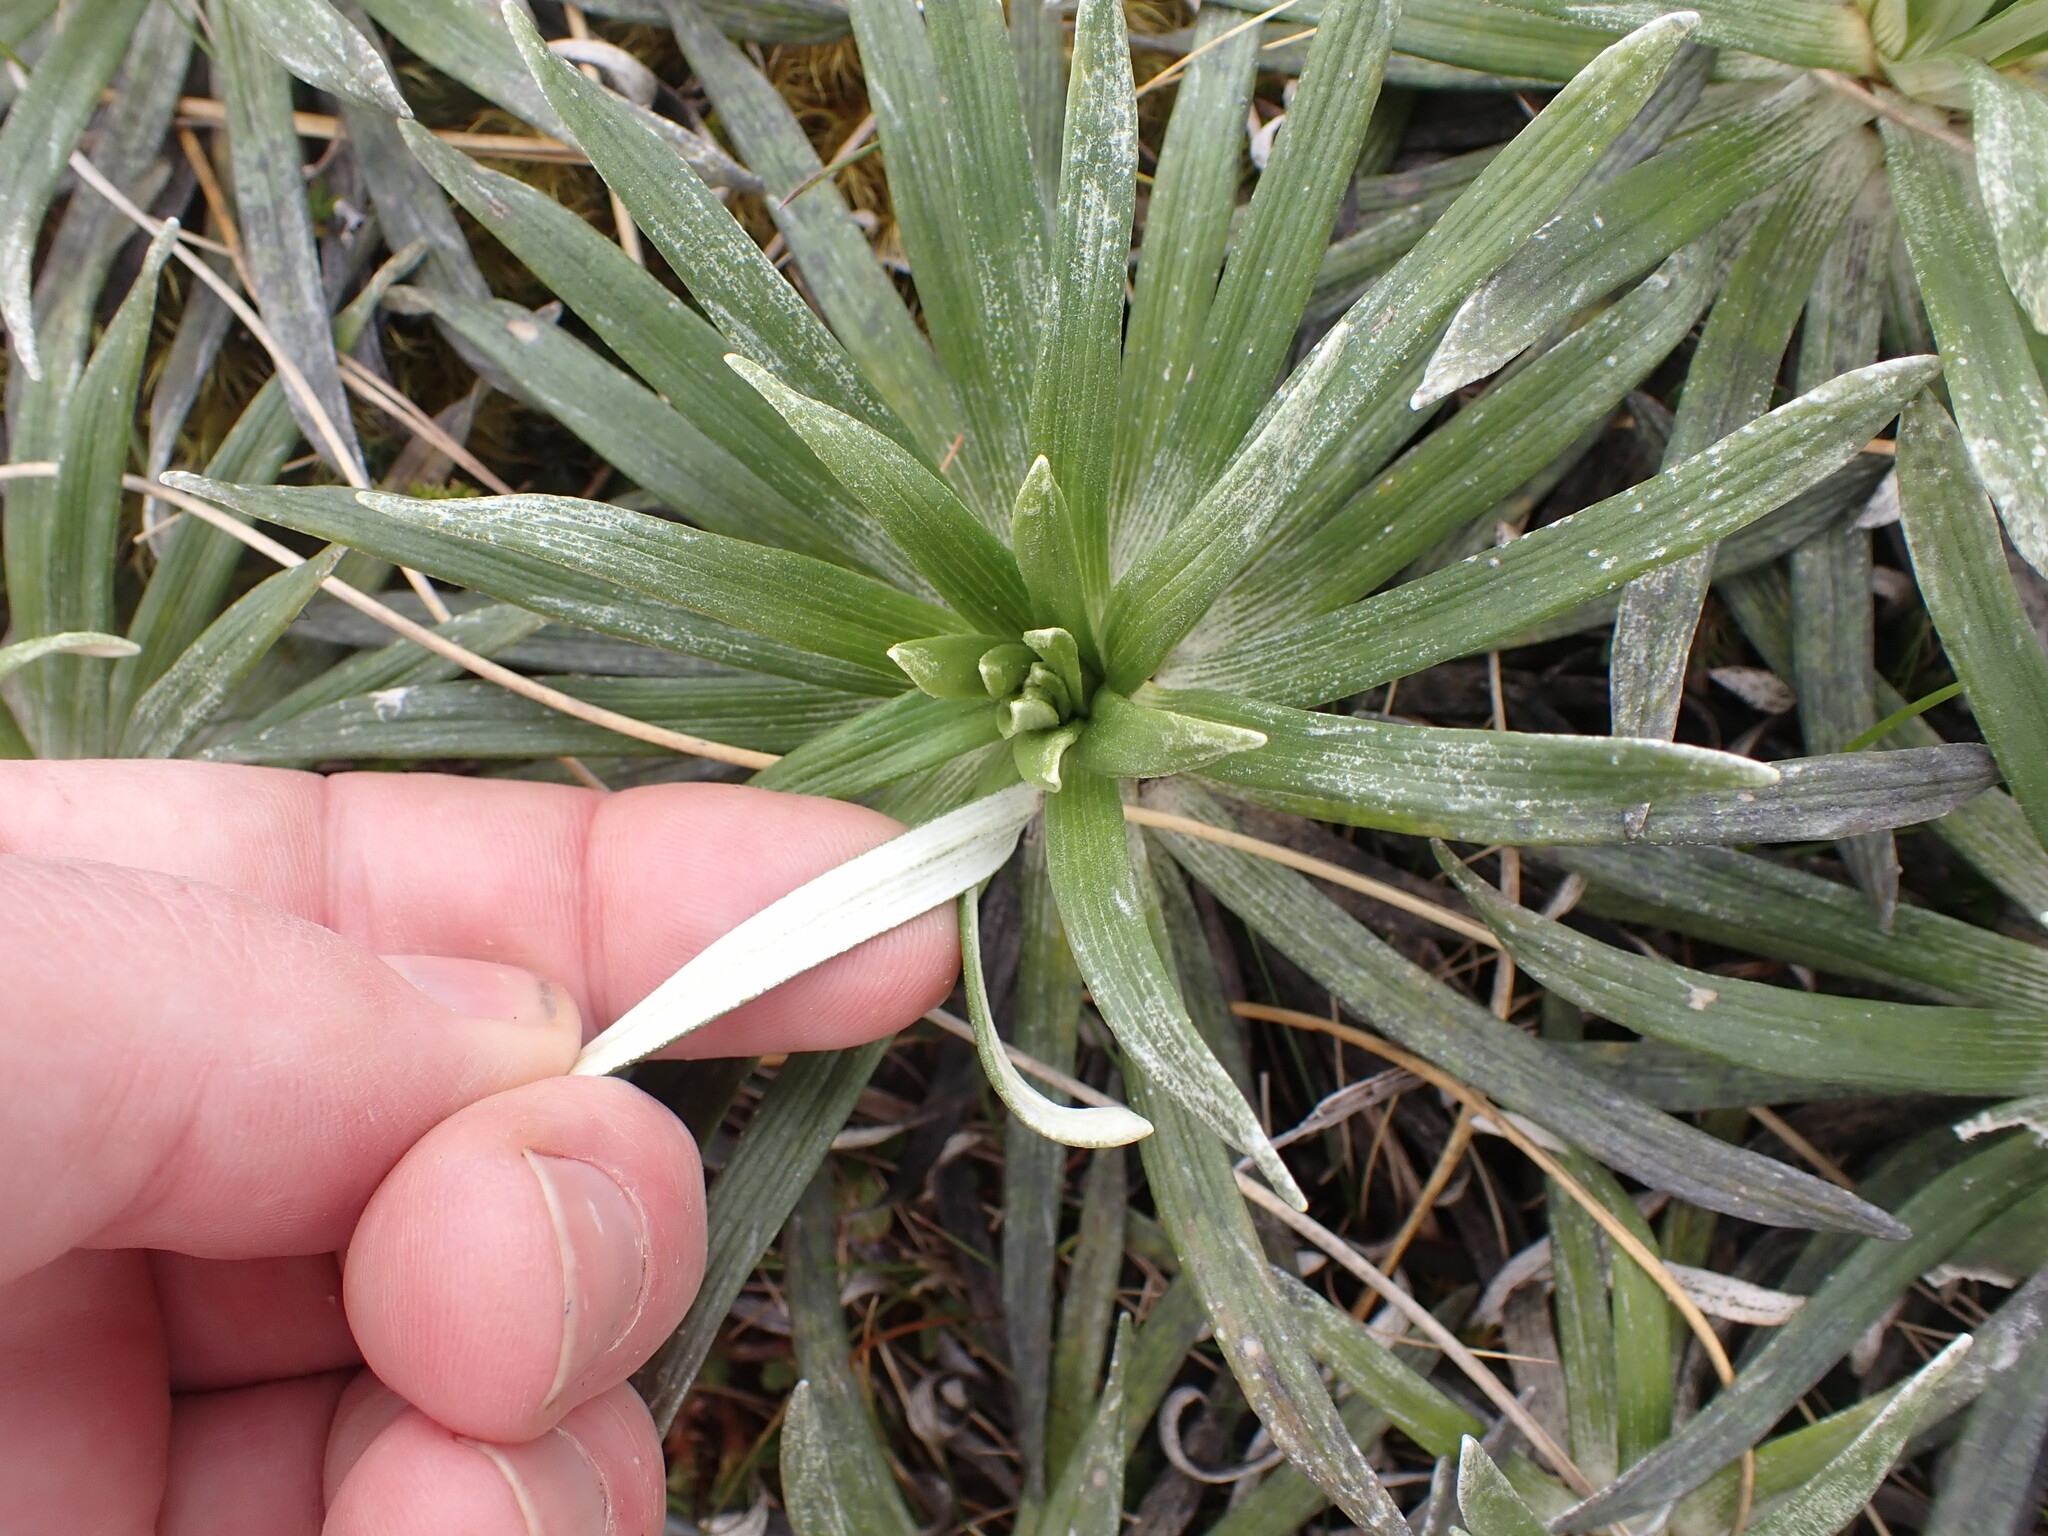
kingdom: Plantae
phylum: Tracheophyta
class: Magnoliopsida
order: Asterales
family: Asteraceae
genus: Celmisia
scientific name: Celmisia viscosa
